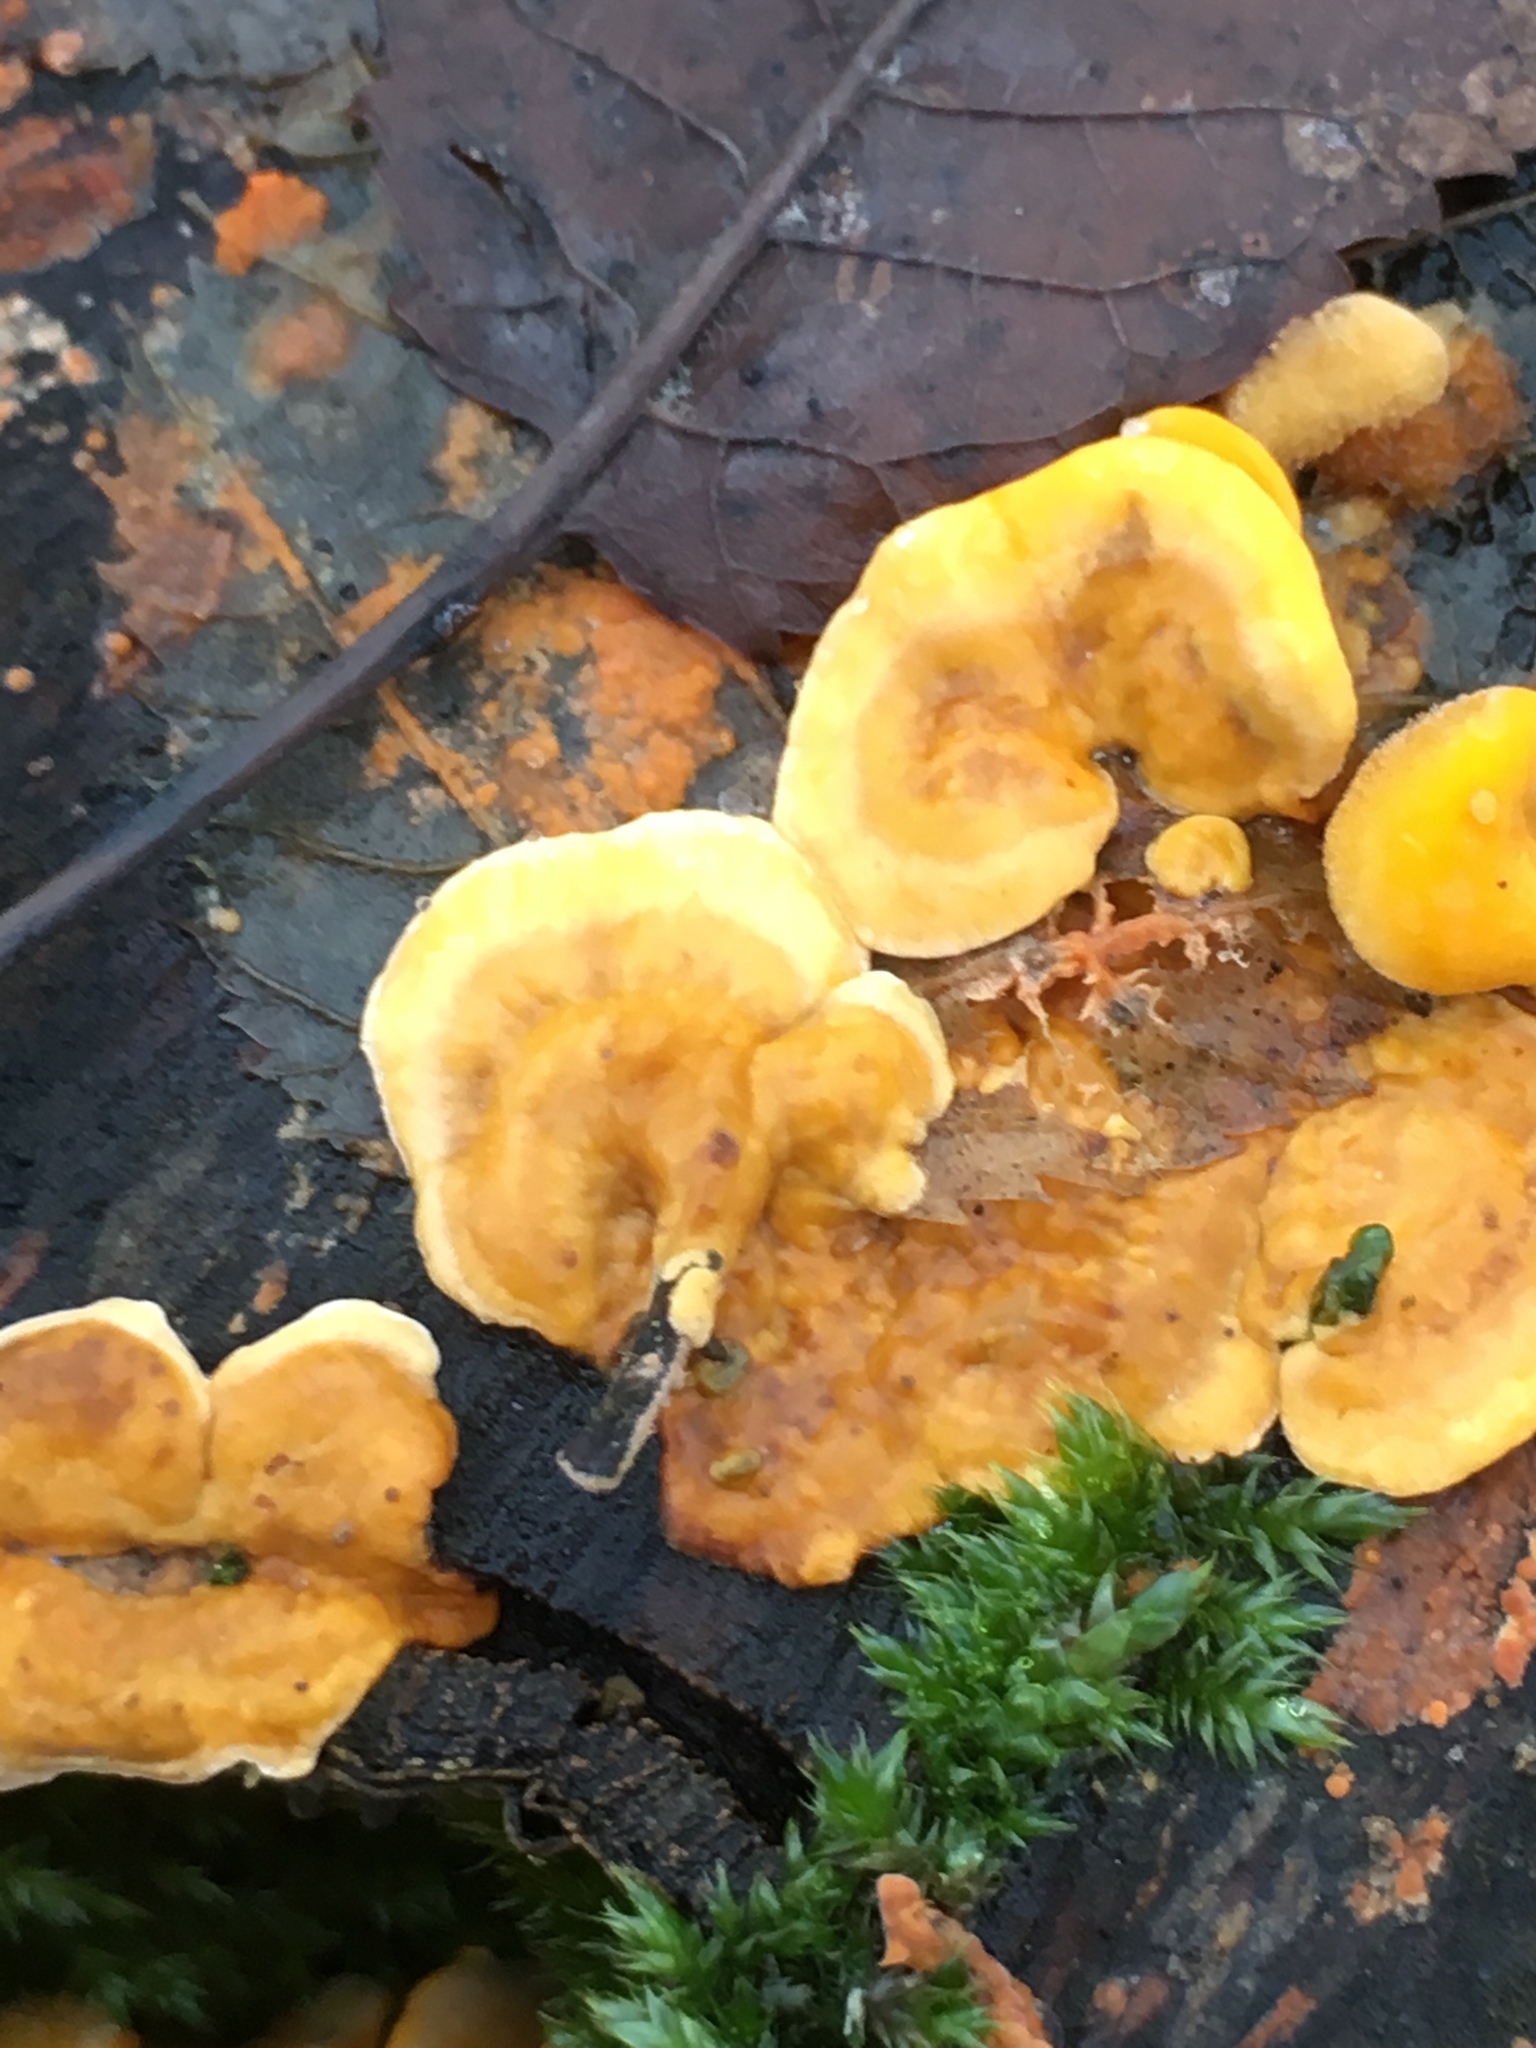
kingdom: Fungi
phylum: Basidiomycota
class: Agaricomycetes
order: Russulales
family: Stereaceae
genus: Stereum
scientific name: Stereum hirsutum
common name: Hairy curtain crust
